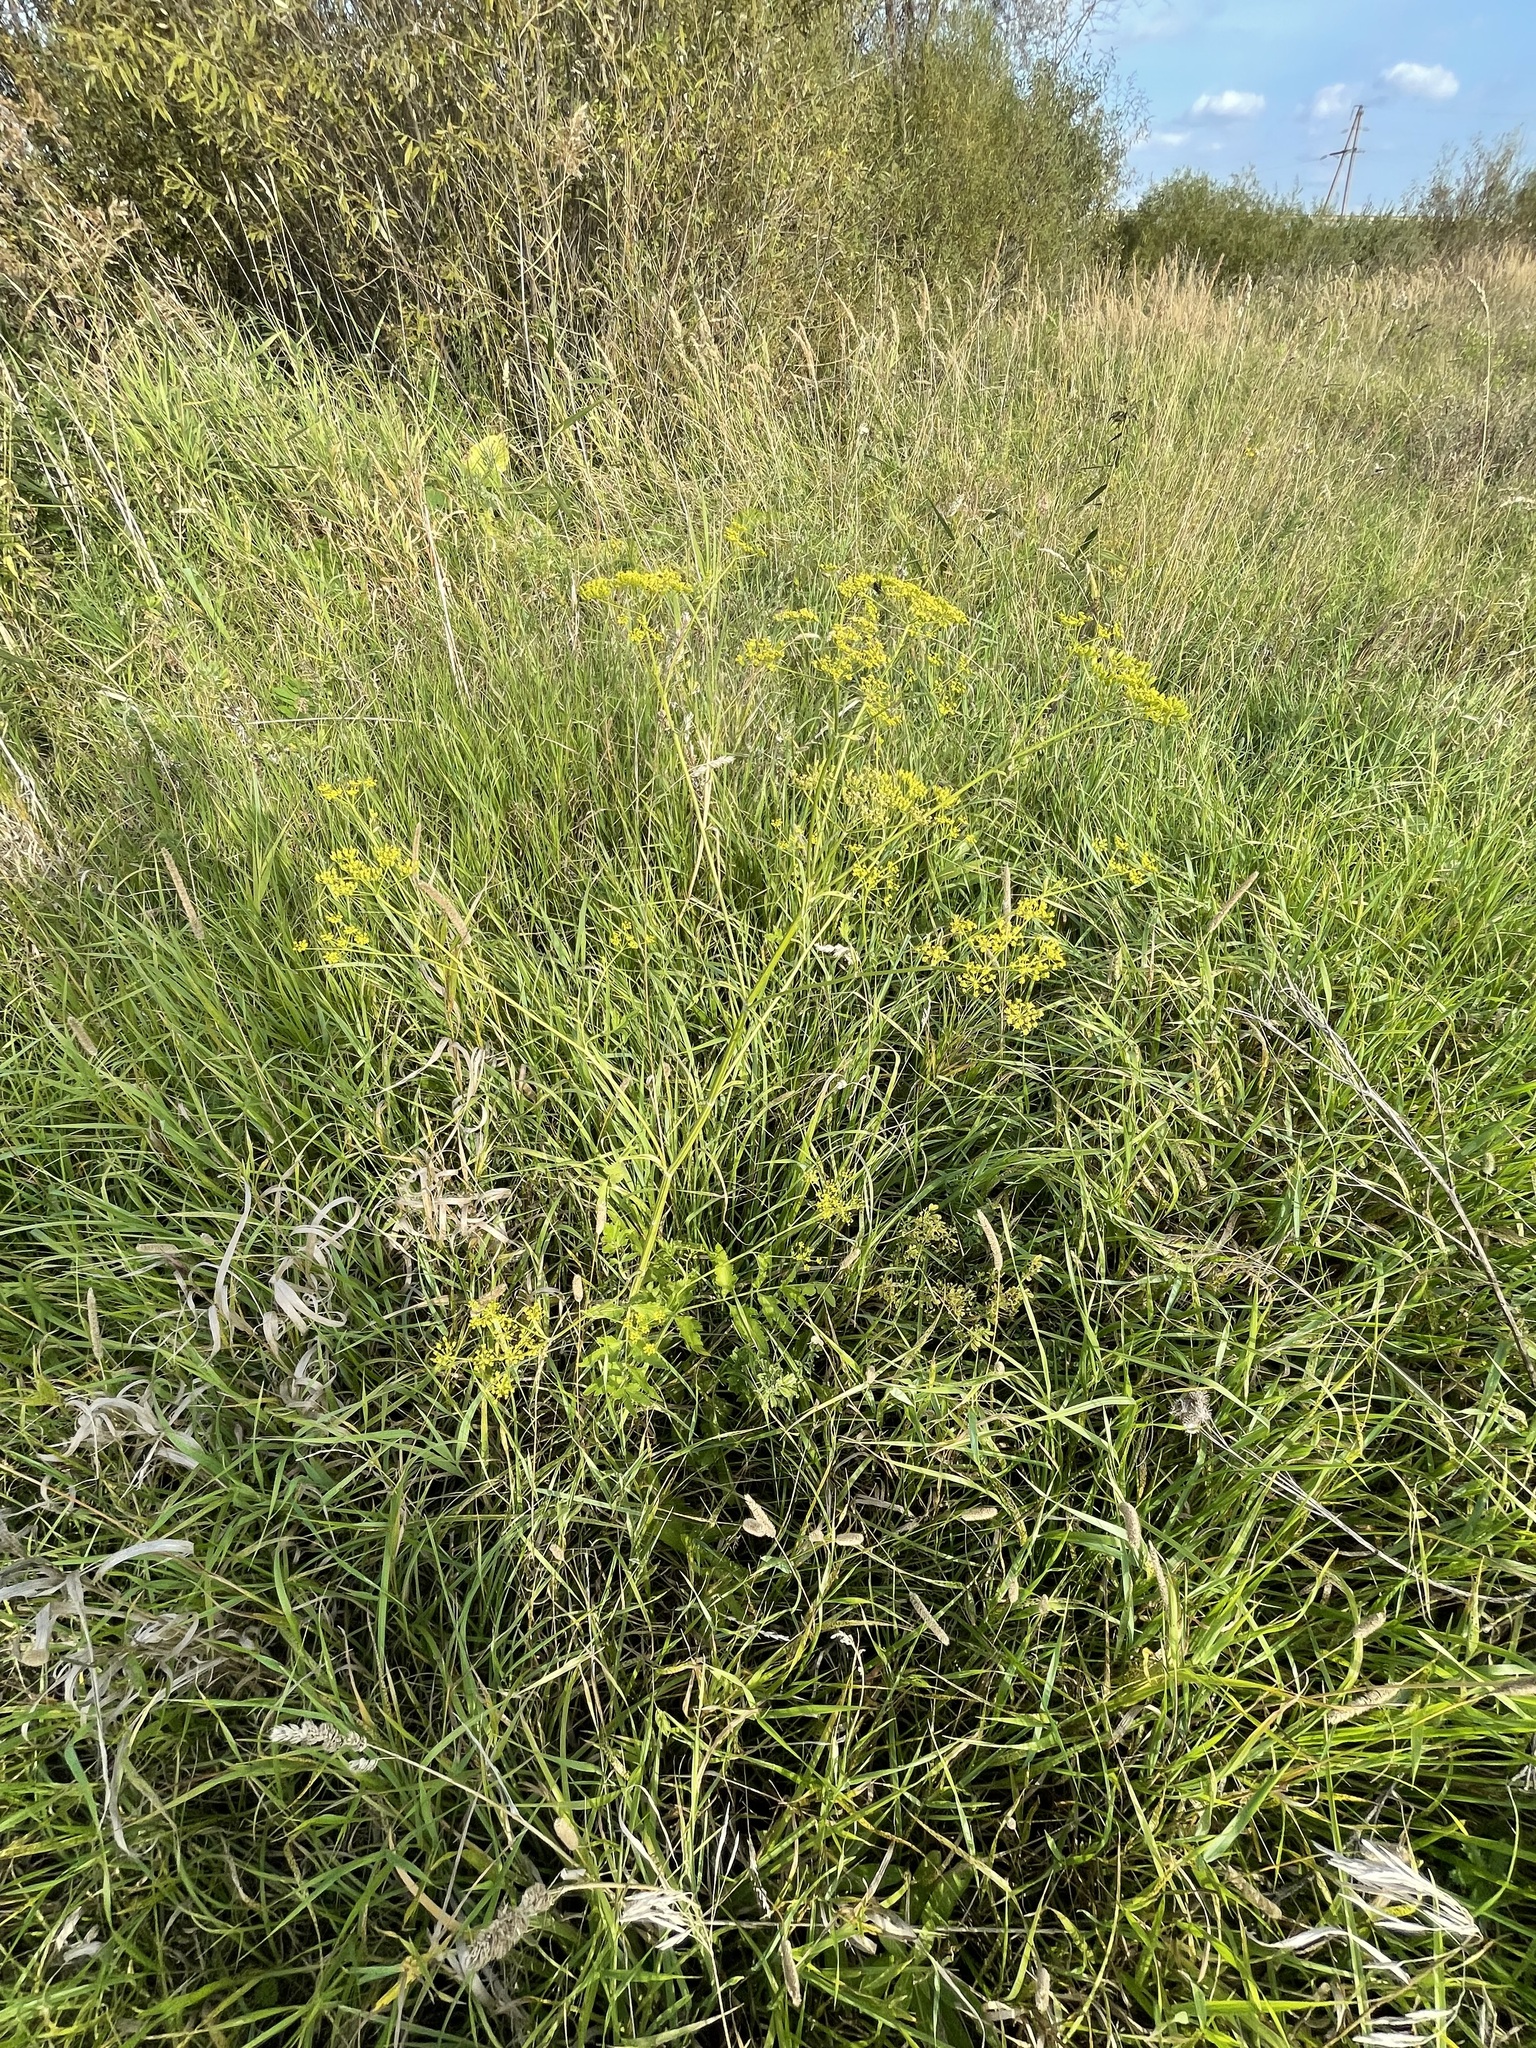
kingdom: Plantae
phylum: Tracheophyta
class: Magnoliopsida
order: Apiales
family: Apiaceae
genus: Pastinaca
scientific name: Pastinaca sativa
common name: Wild parsnip
